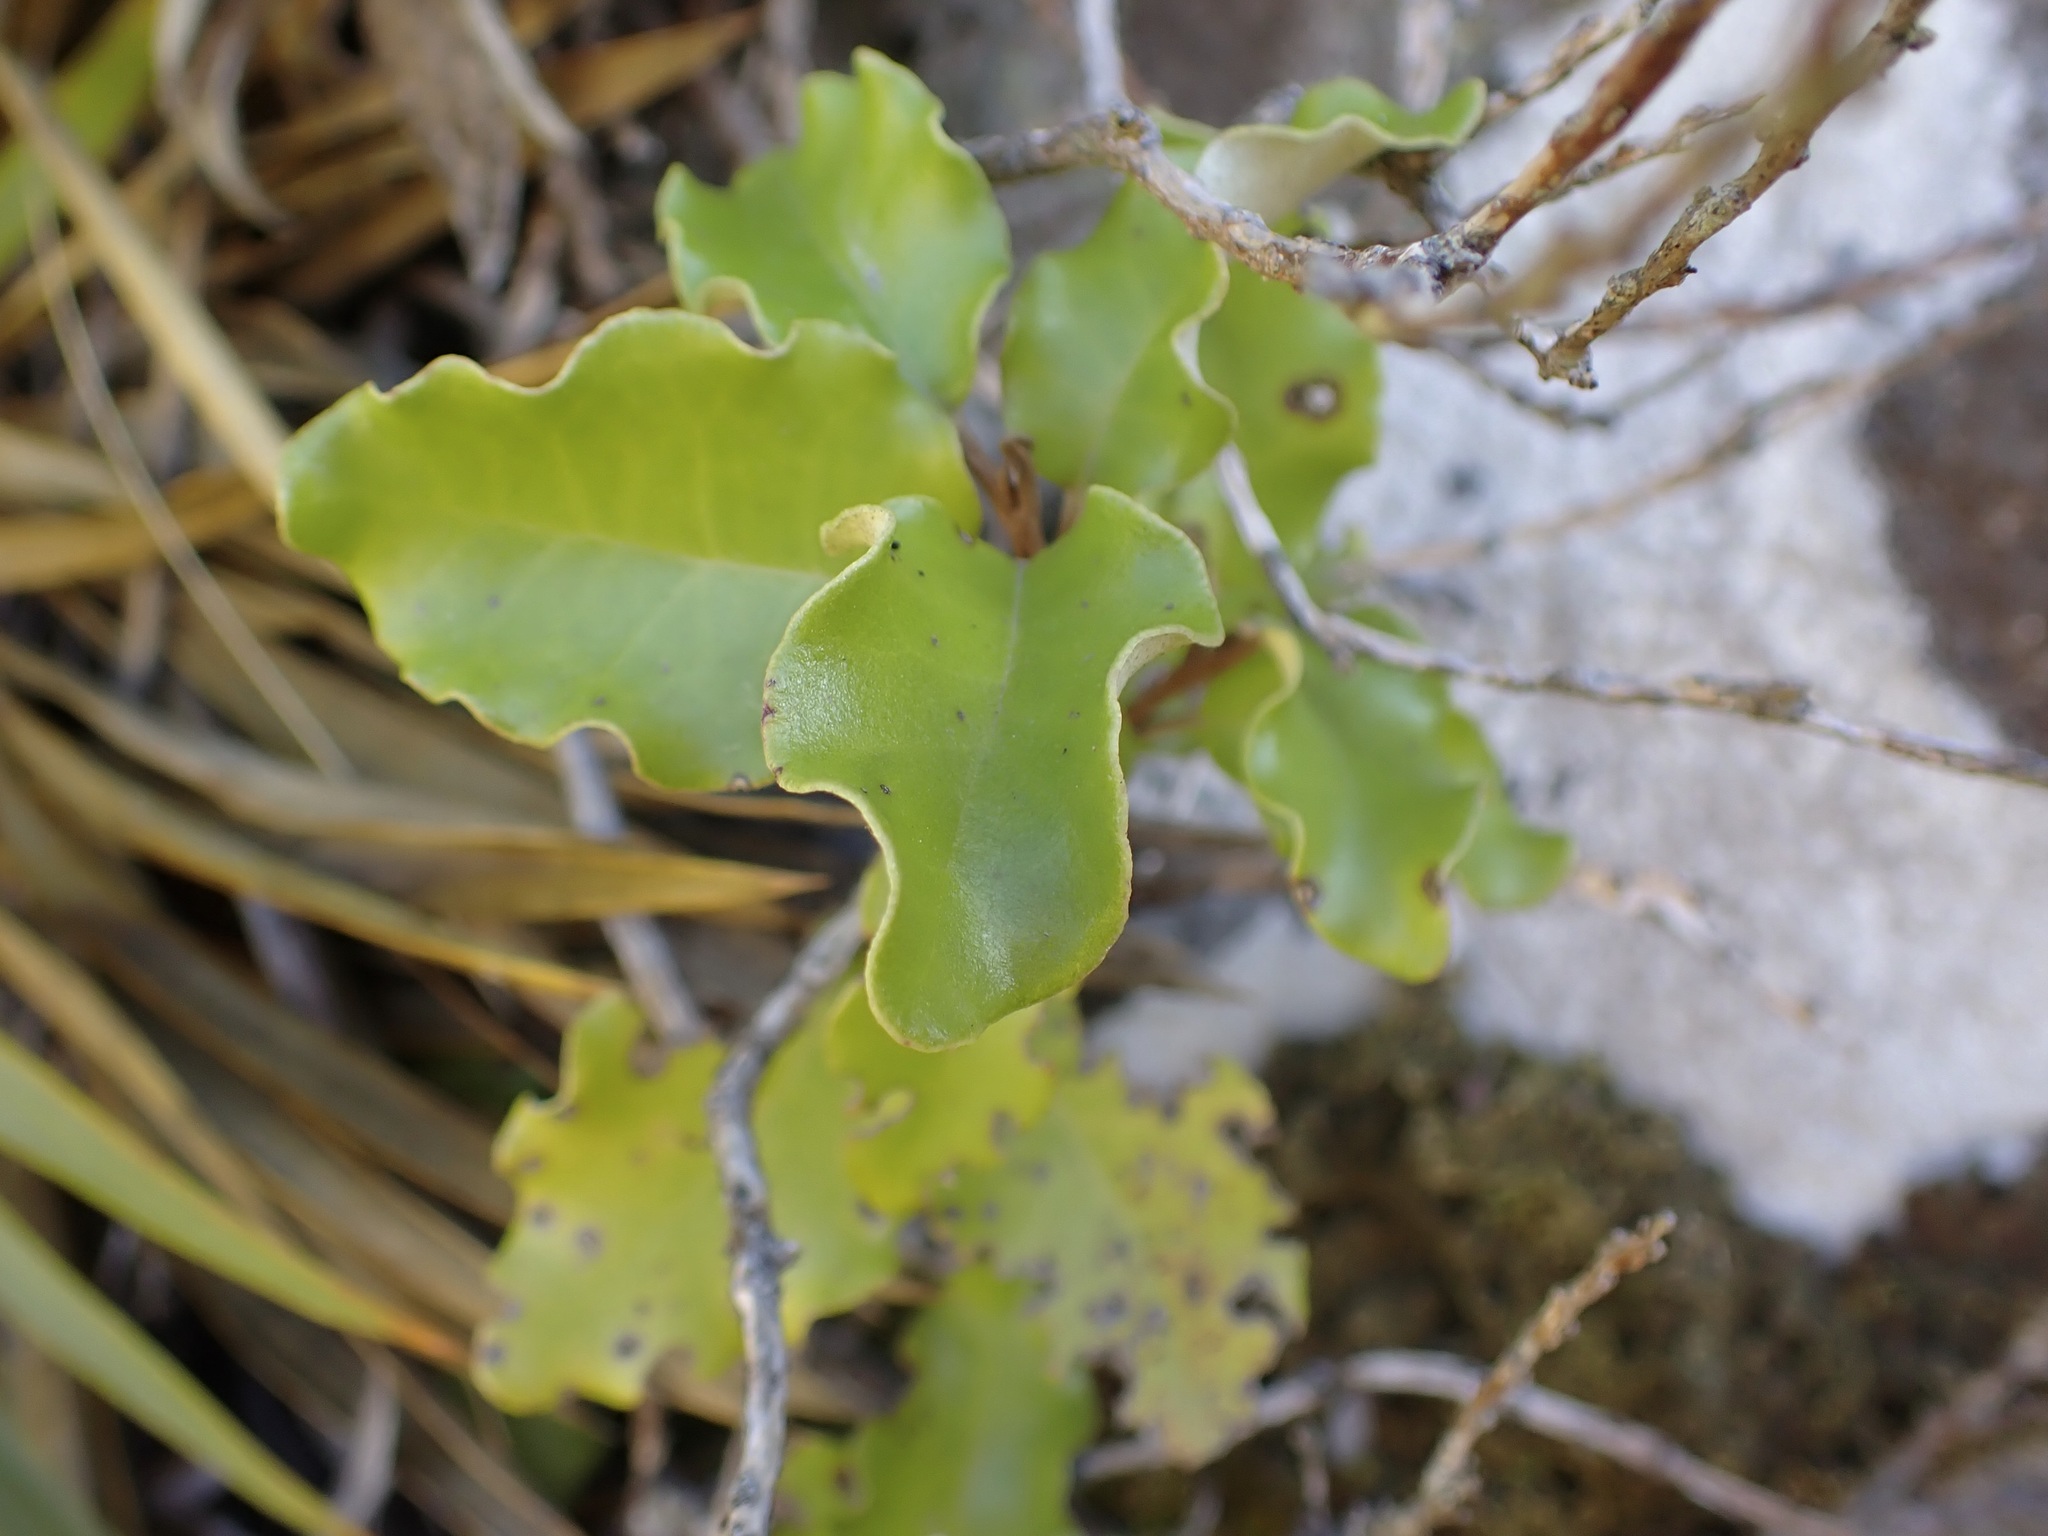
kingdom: Plantae
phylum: Tracheophyta
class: Magnoliopsida
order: Asterales
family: Asteraceae
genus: Olearia
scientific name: Olearia paniculata
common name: Akiraho
